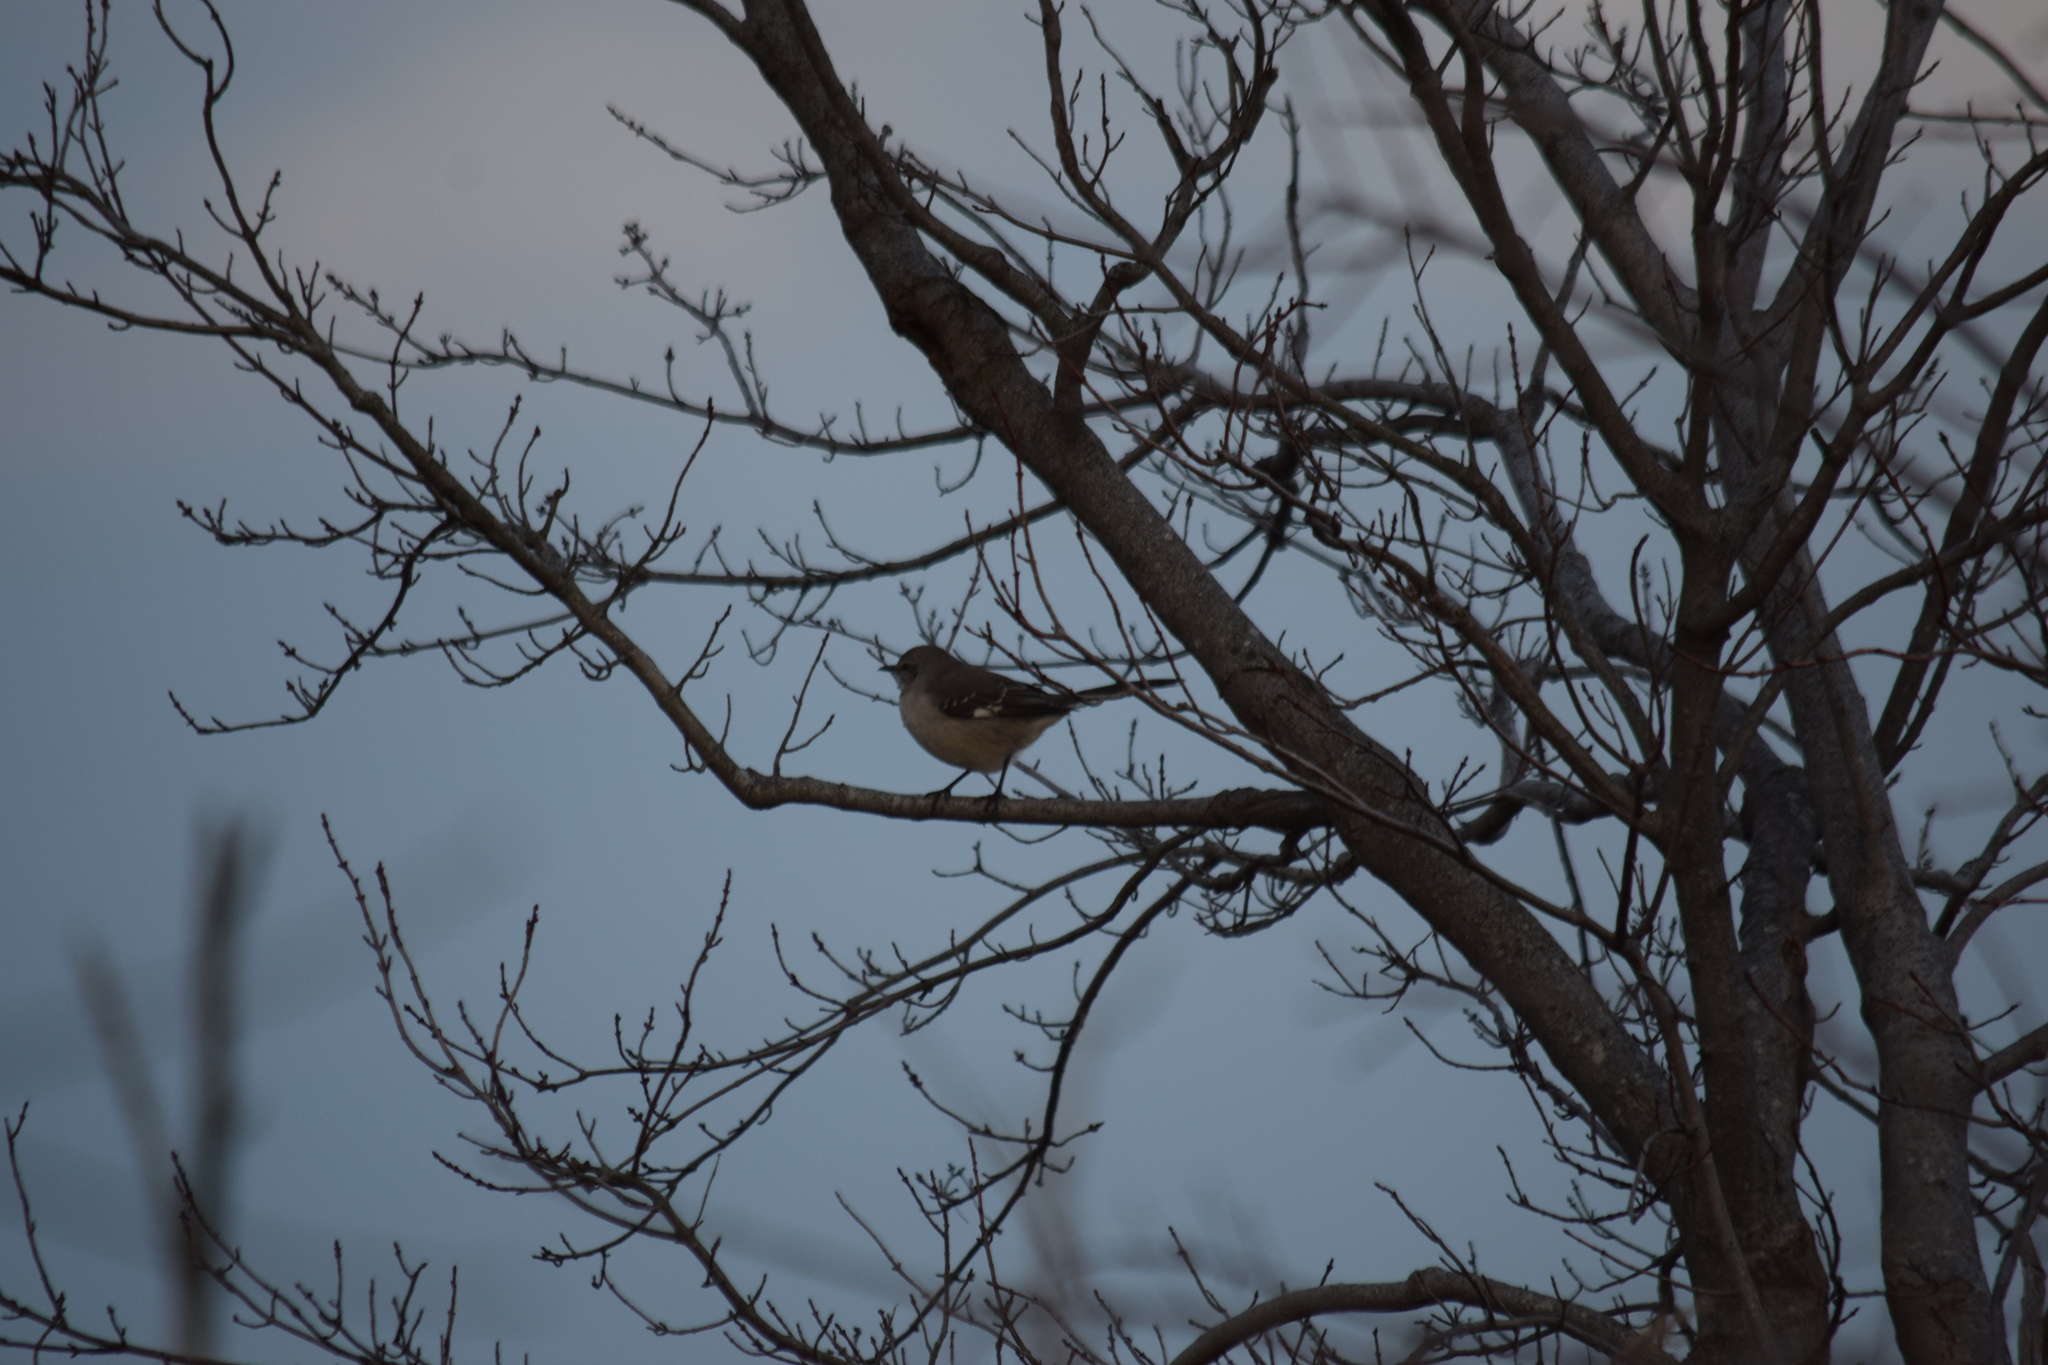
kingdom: Animalia
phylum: Chordata
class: Aves
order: Passeriformes
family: Mimidae
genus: Mimus
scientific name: Mimus polyglottos
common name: Northern mockingbird
